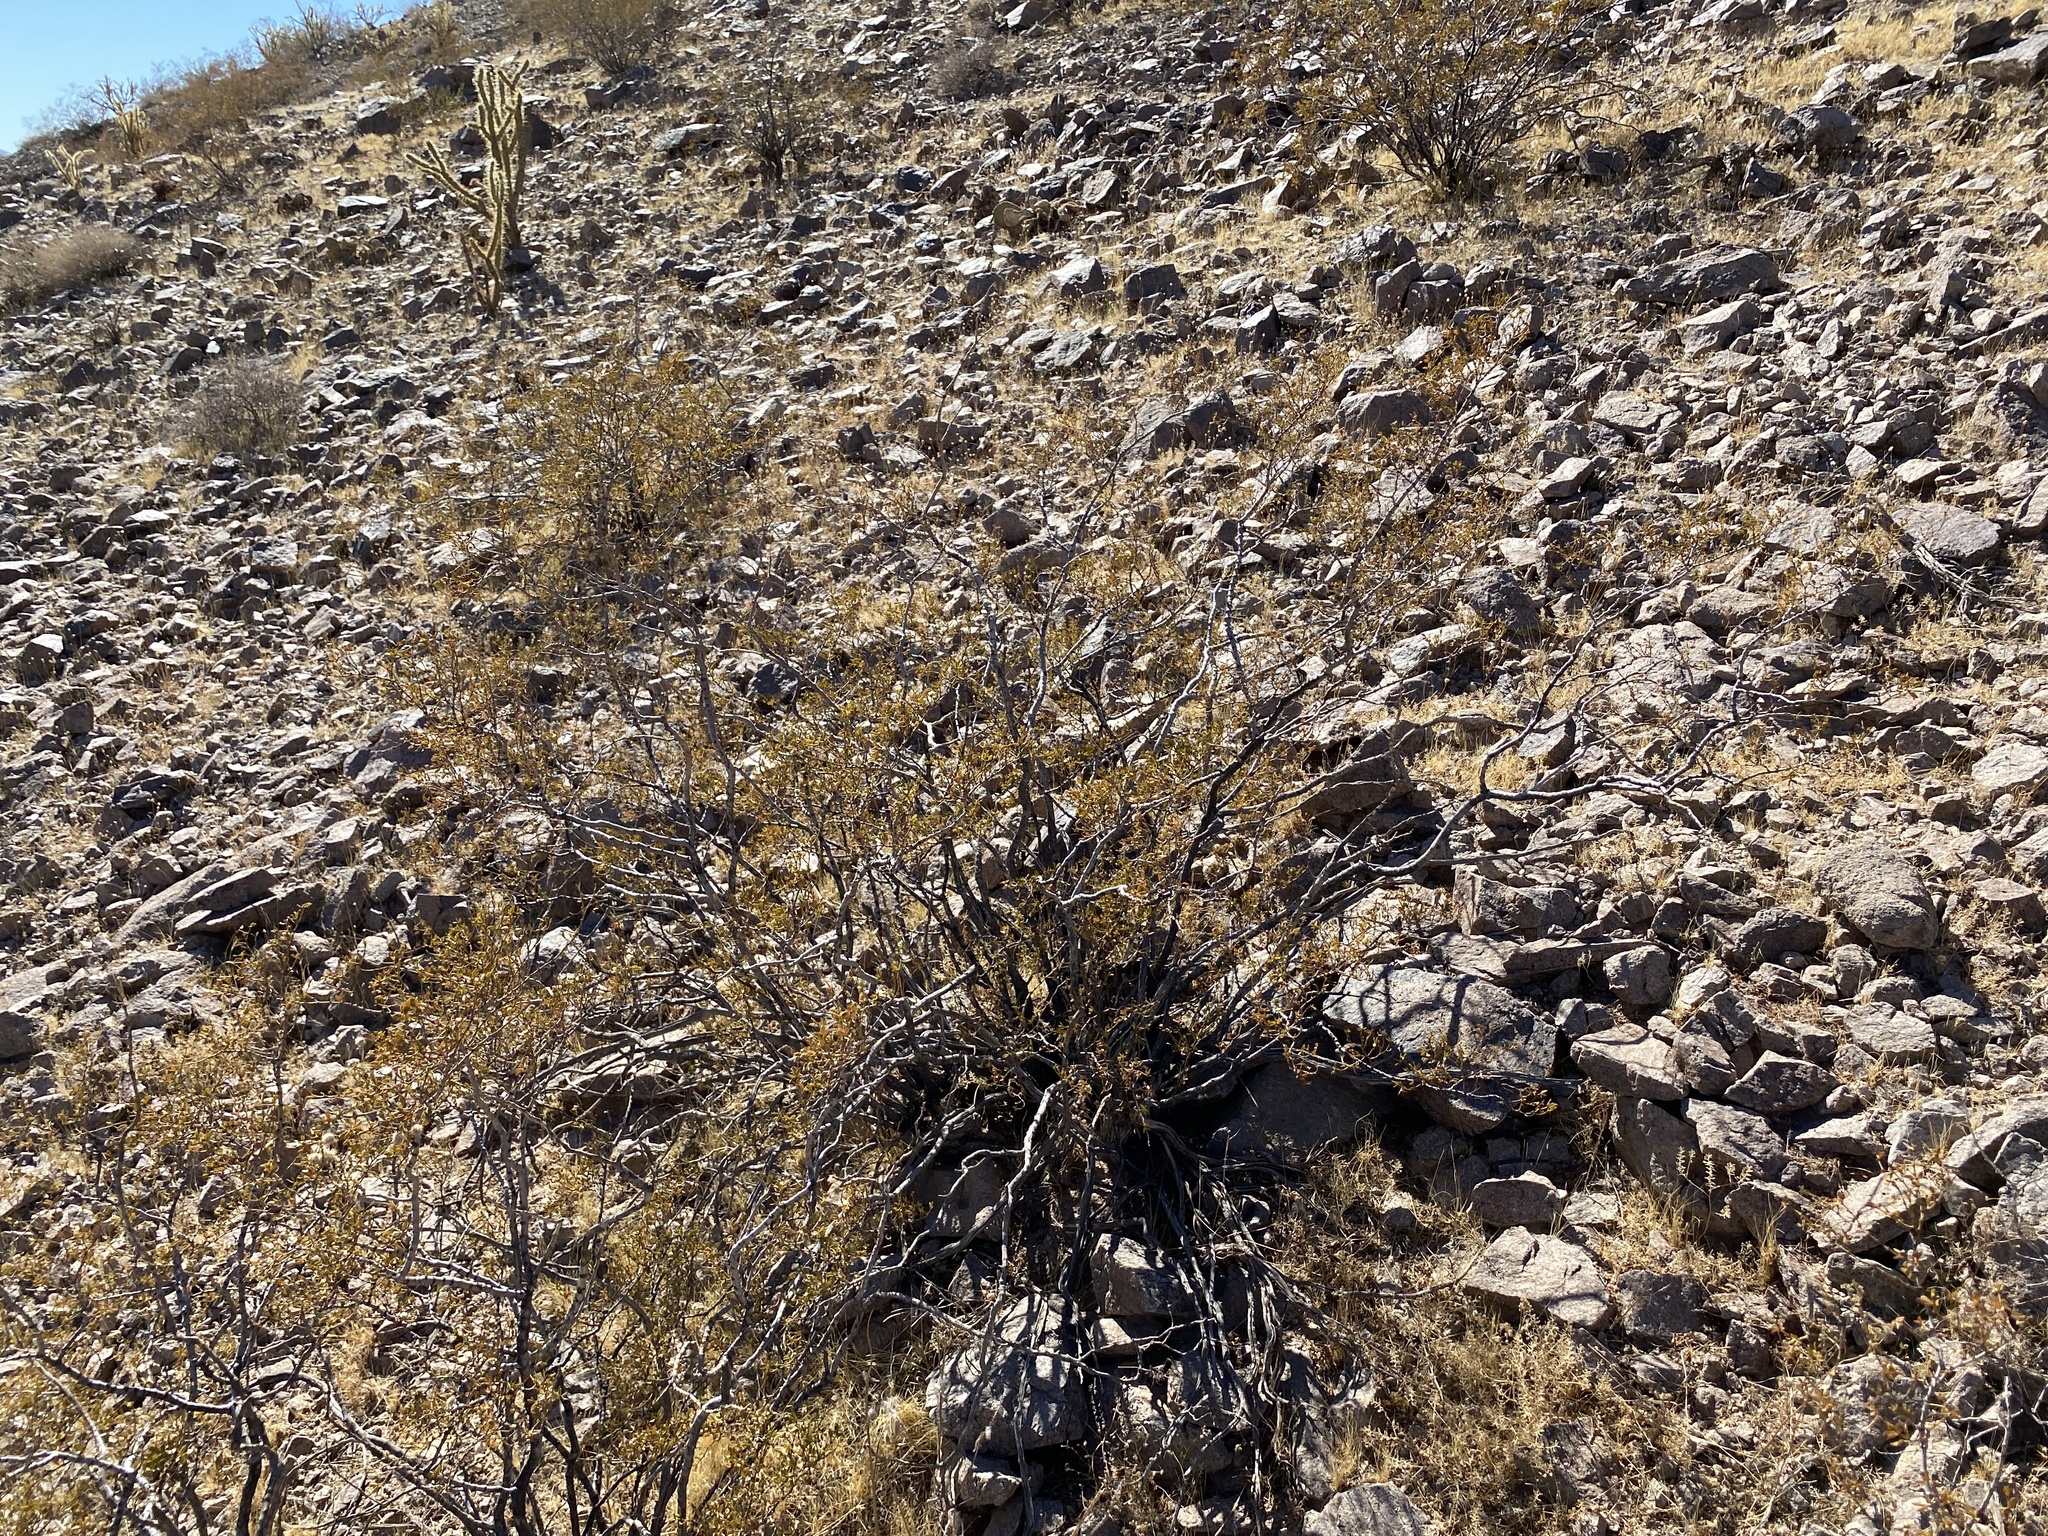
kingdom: Plantae
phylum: Tracheophyta
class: Magnoliopsida
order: Zygophyllales
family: Zygophyllaceae
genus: Larrea
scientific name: Larrea tridentata
